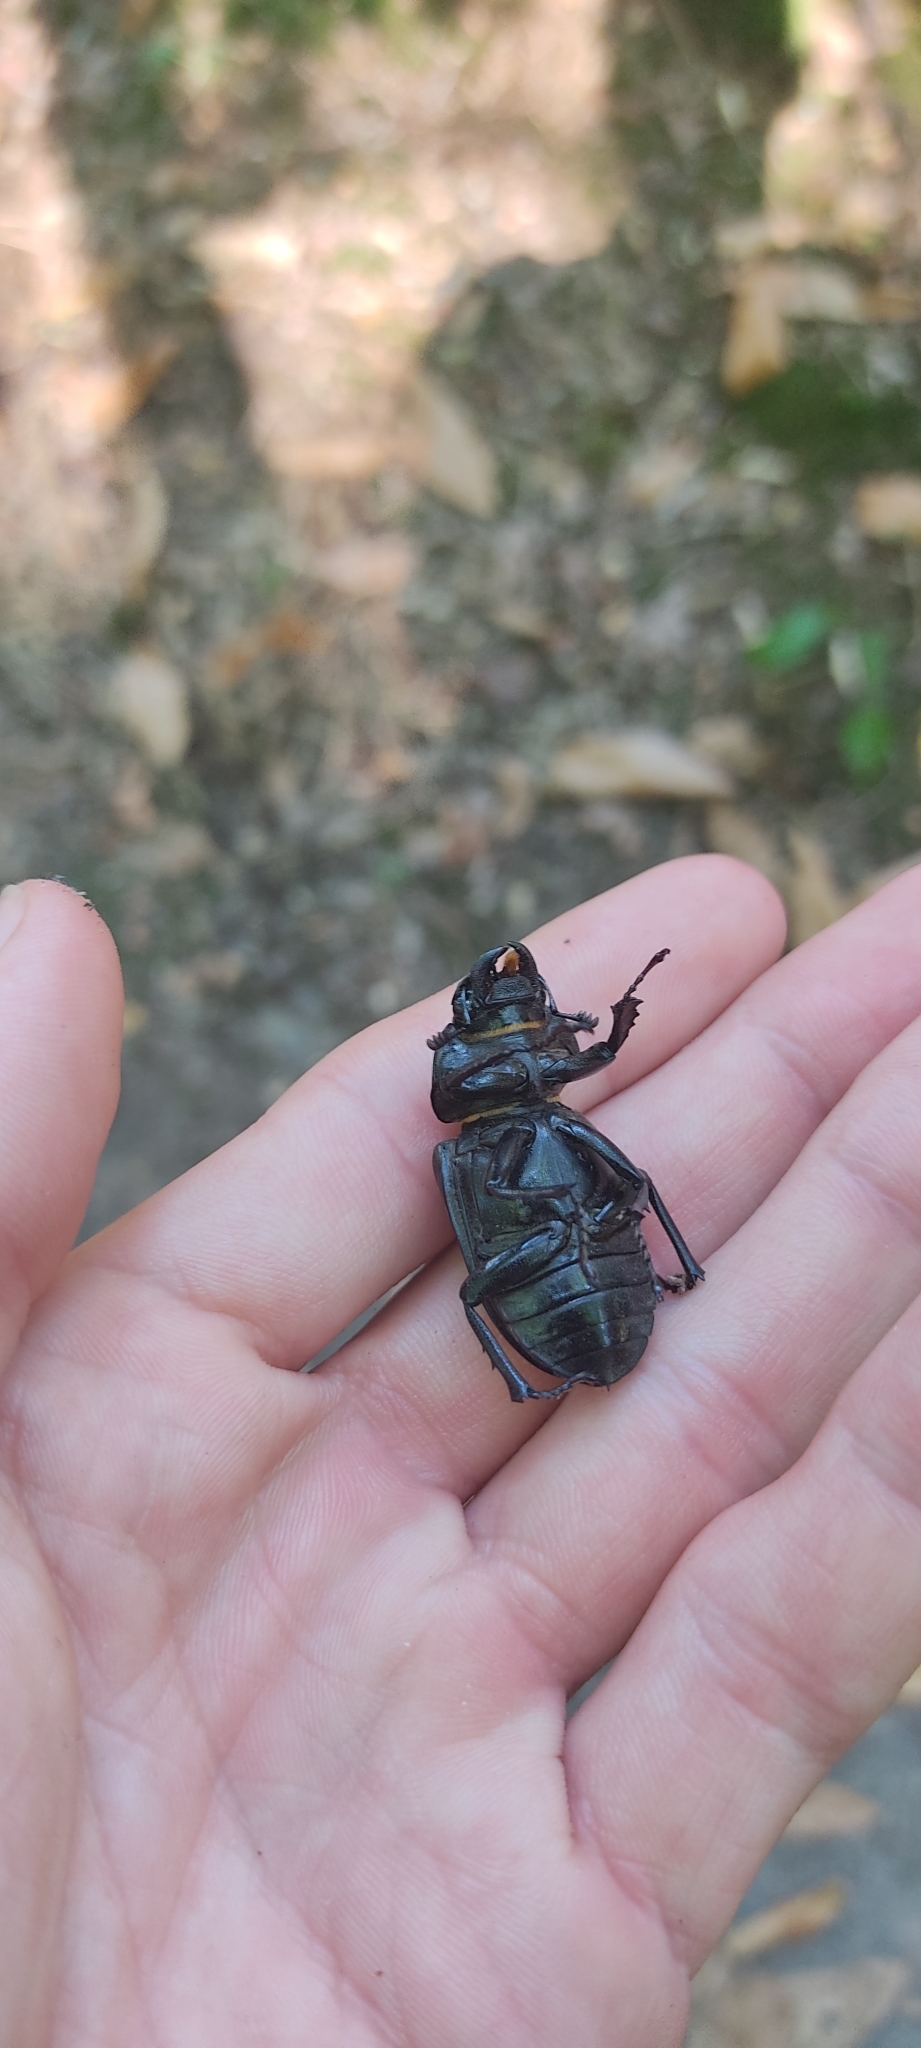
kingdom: Animalia
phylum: Arthropoda
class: Insecta
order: Coleoptera
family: Lucanidae
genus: Lucanus
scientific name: Lucanus cervus
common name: Stag beetle
